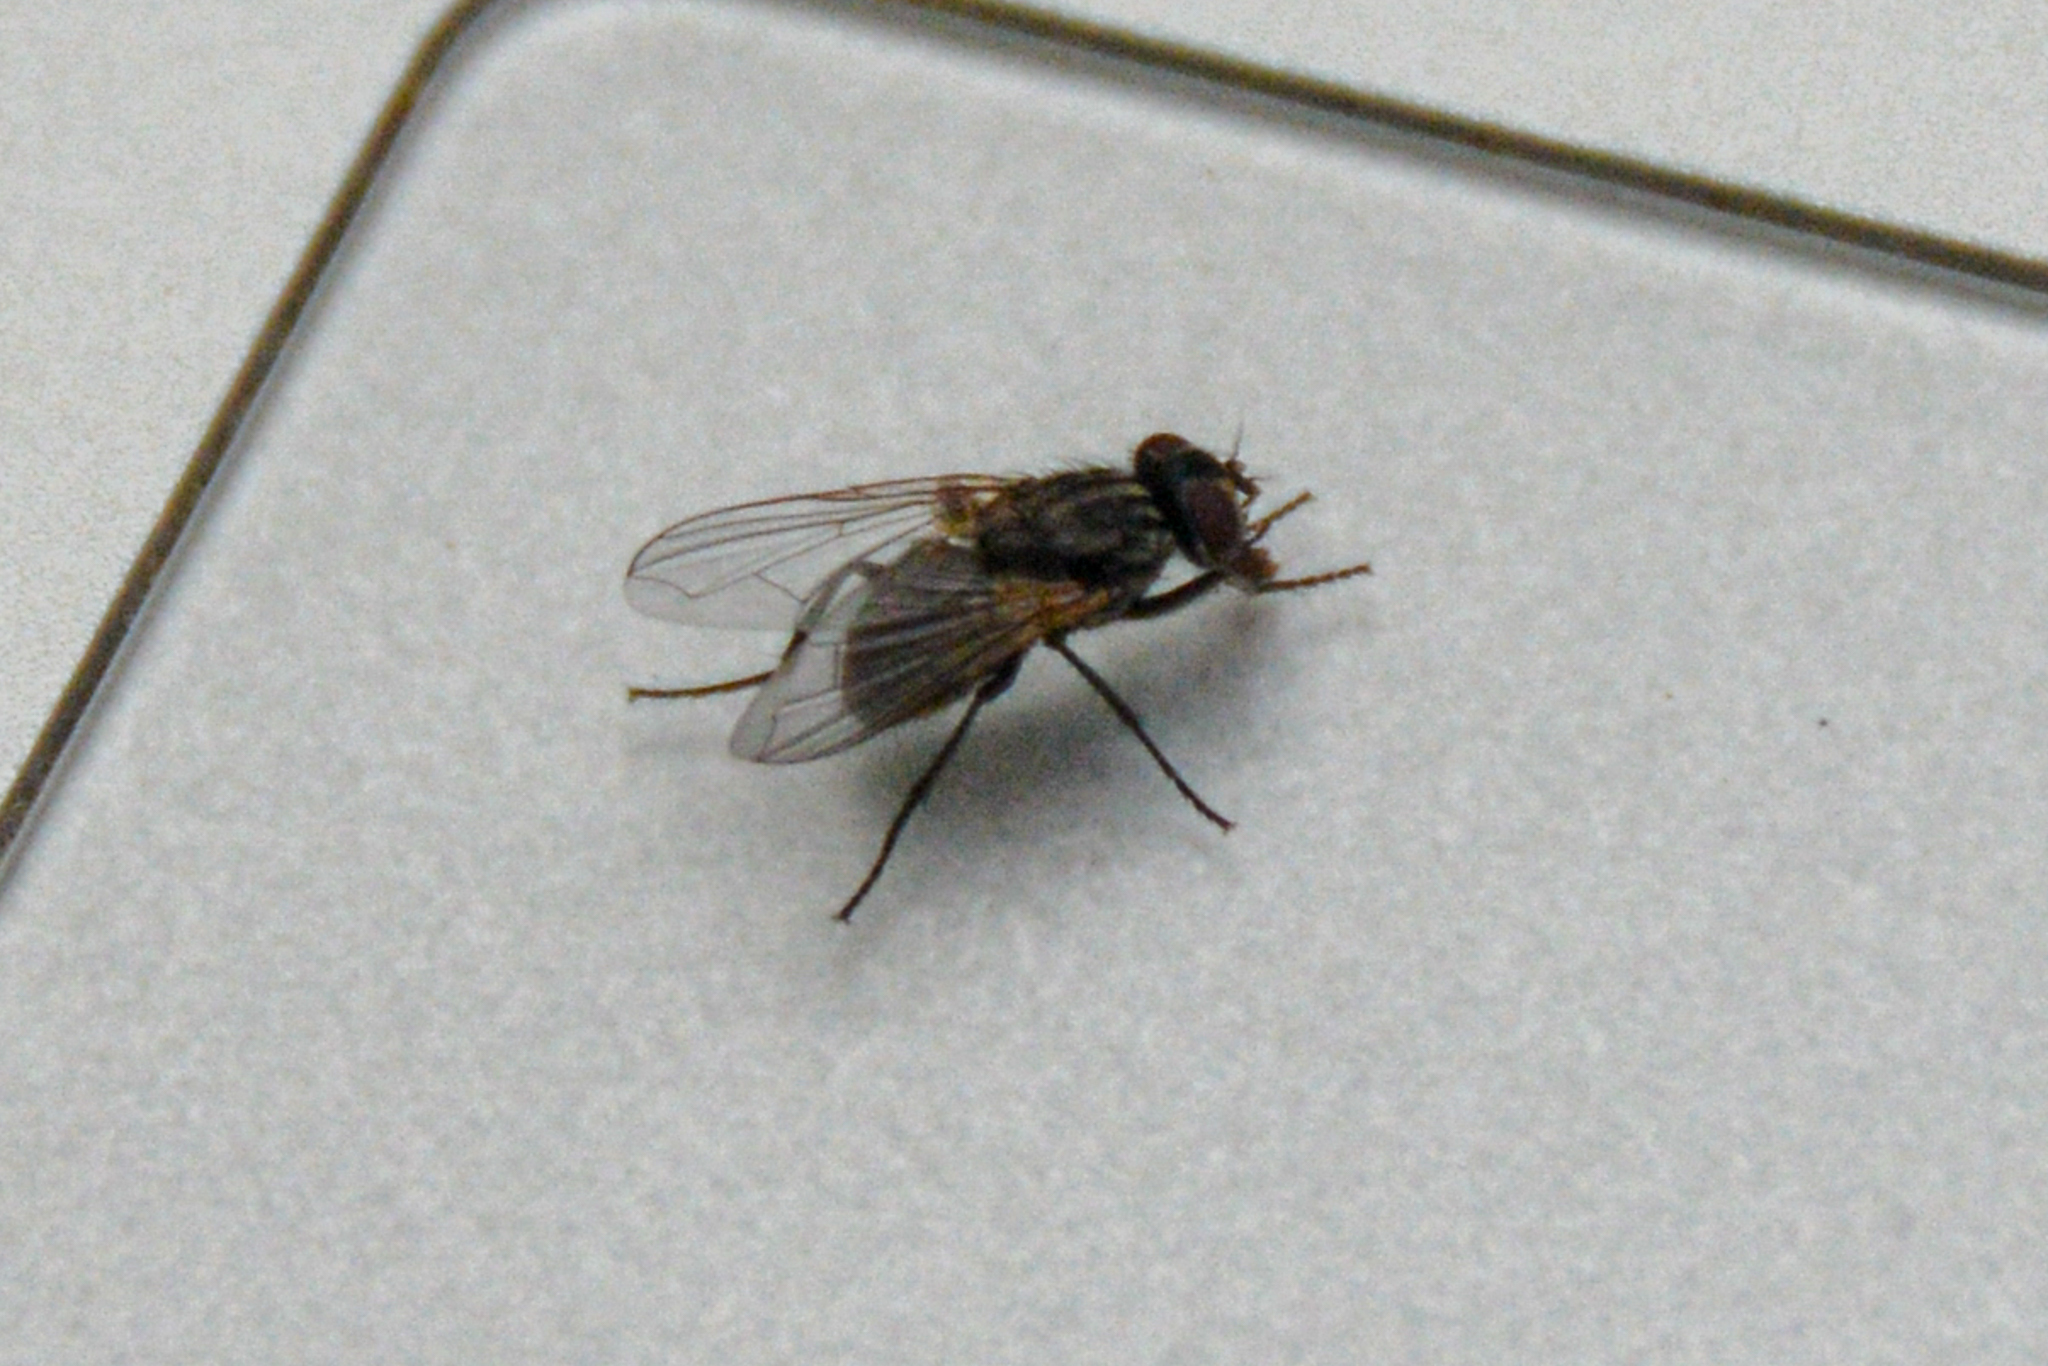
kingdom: Animalia
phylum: Arthropoda
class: Insecta
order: Diptera
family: Muscidae
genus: Musca
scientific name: Musca domestica
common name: House fly
